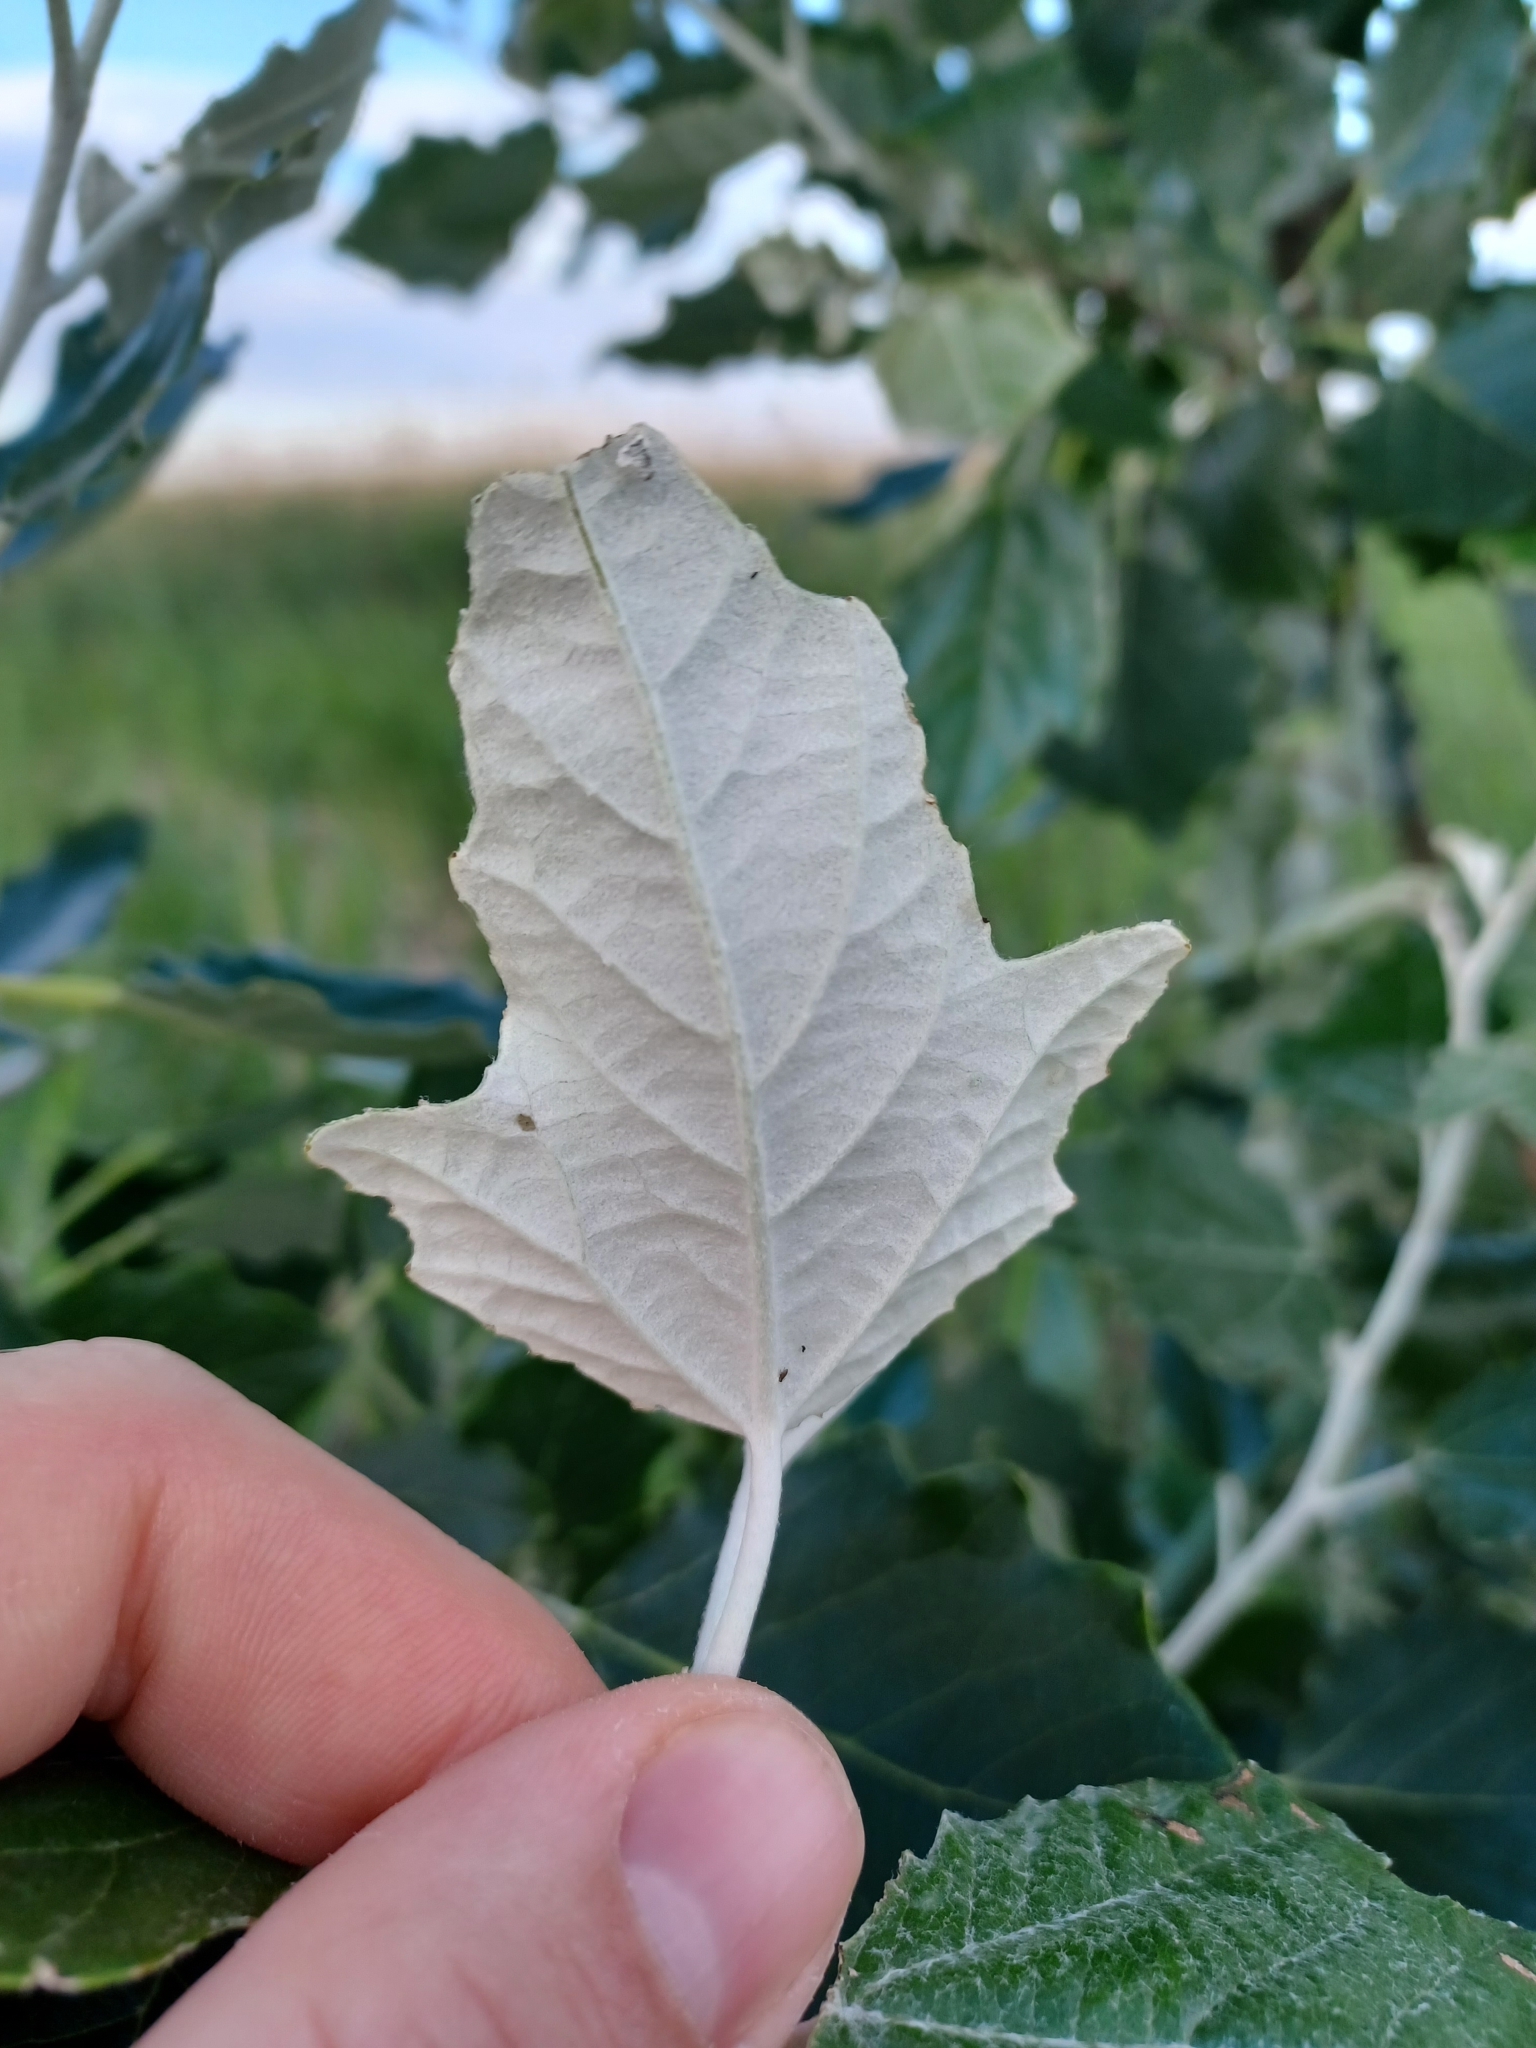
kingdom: Plantae
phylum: Tracheophyta
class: Magnoliopsida
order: Malpighiales
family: Salicaceae
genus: Populus
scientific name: Populus alba
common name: White poplar
